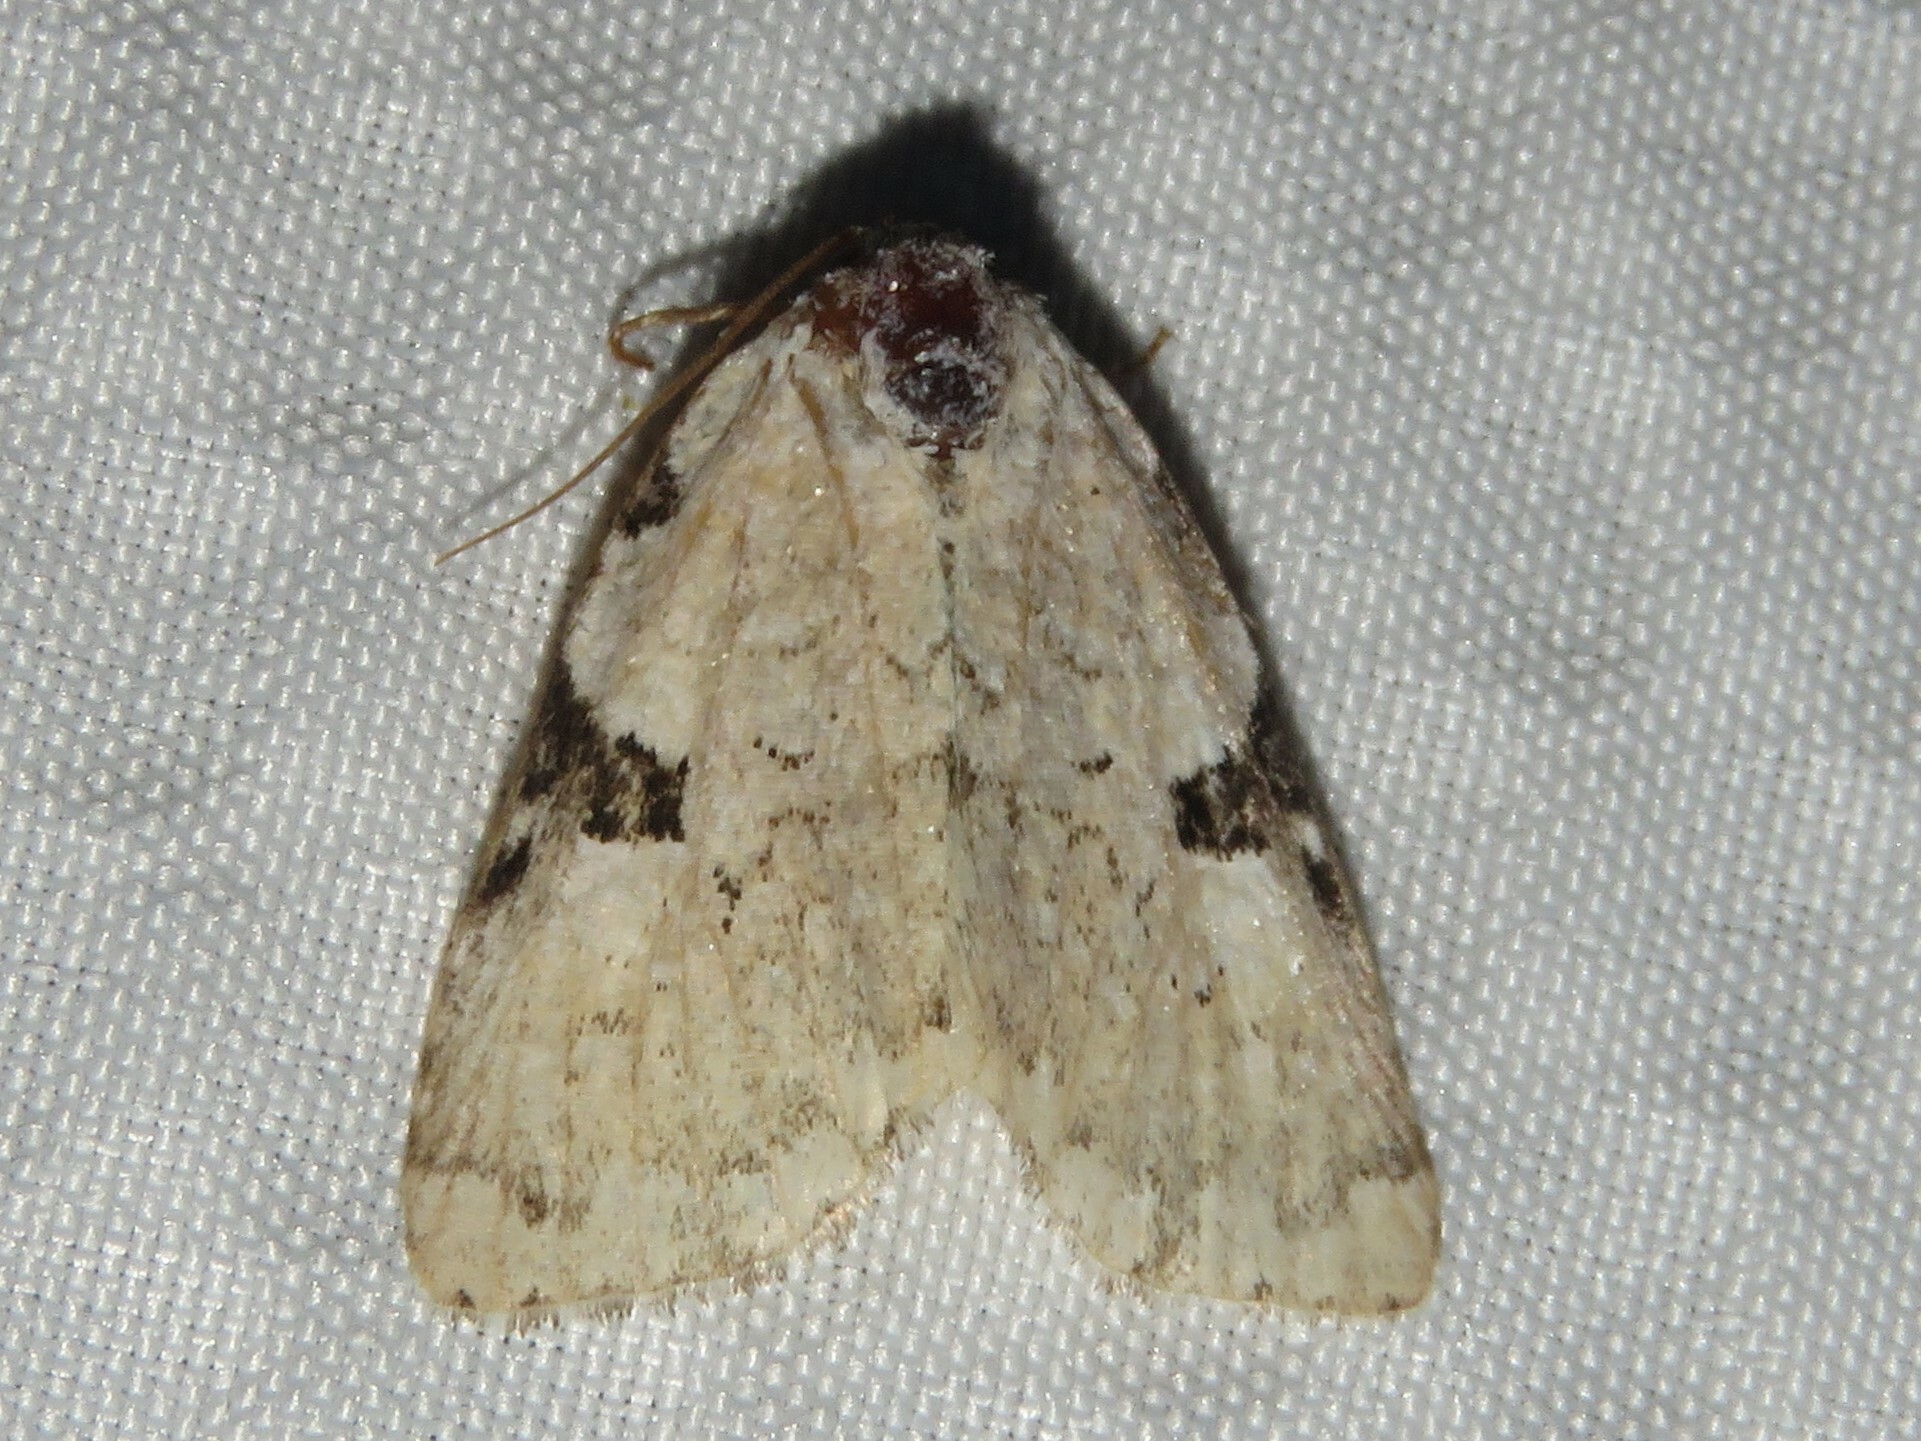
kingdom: Animalia
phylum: Arthropoda
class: Insecta
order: Lepidoptera
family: Noctuidae
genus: Leuconycta
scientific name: Leuconycta diphteroides
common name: Green leuconycta moth
